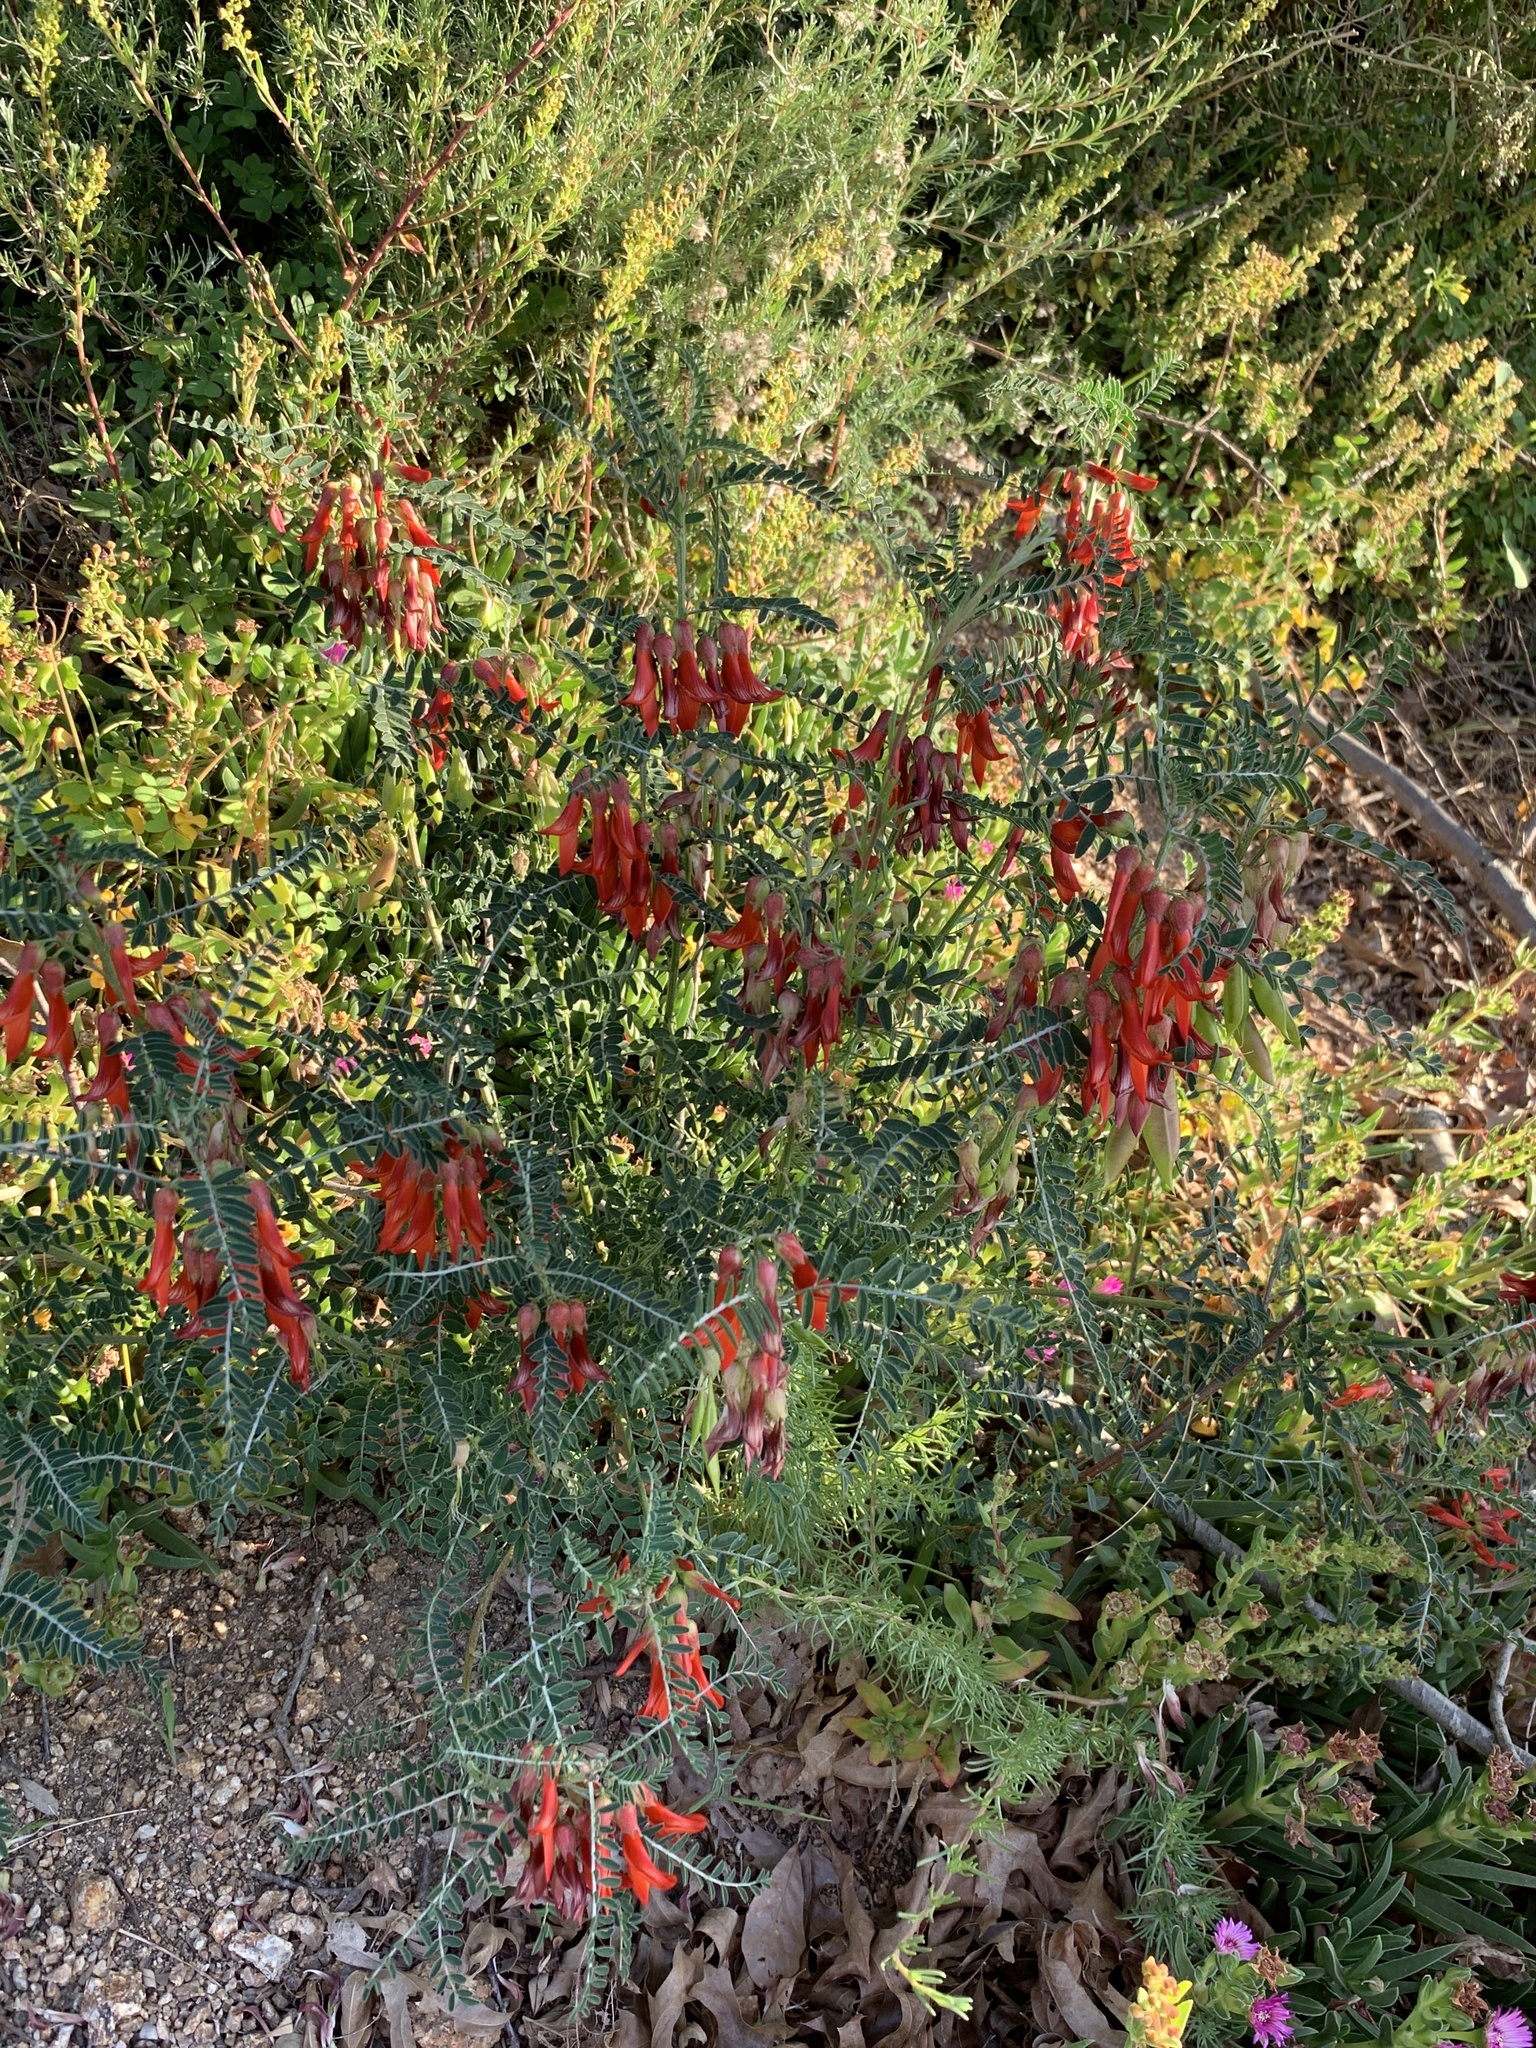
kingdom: Plantae
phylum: Tracheophyta
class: Magnoliopsida
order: Fabales
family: Fabaceae
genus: Lessertia
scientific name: Lessertia frutescens
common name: Balloon-pea
